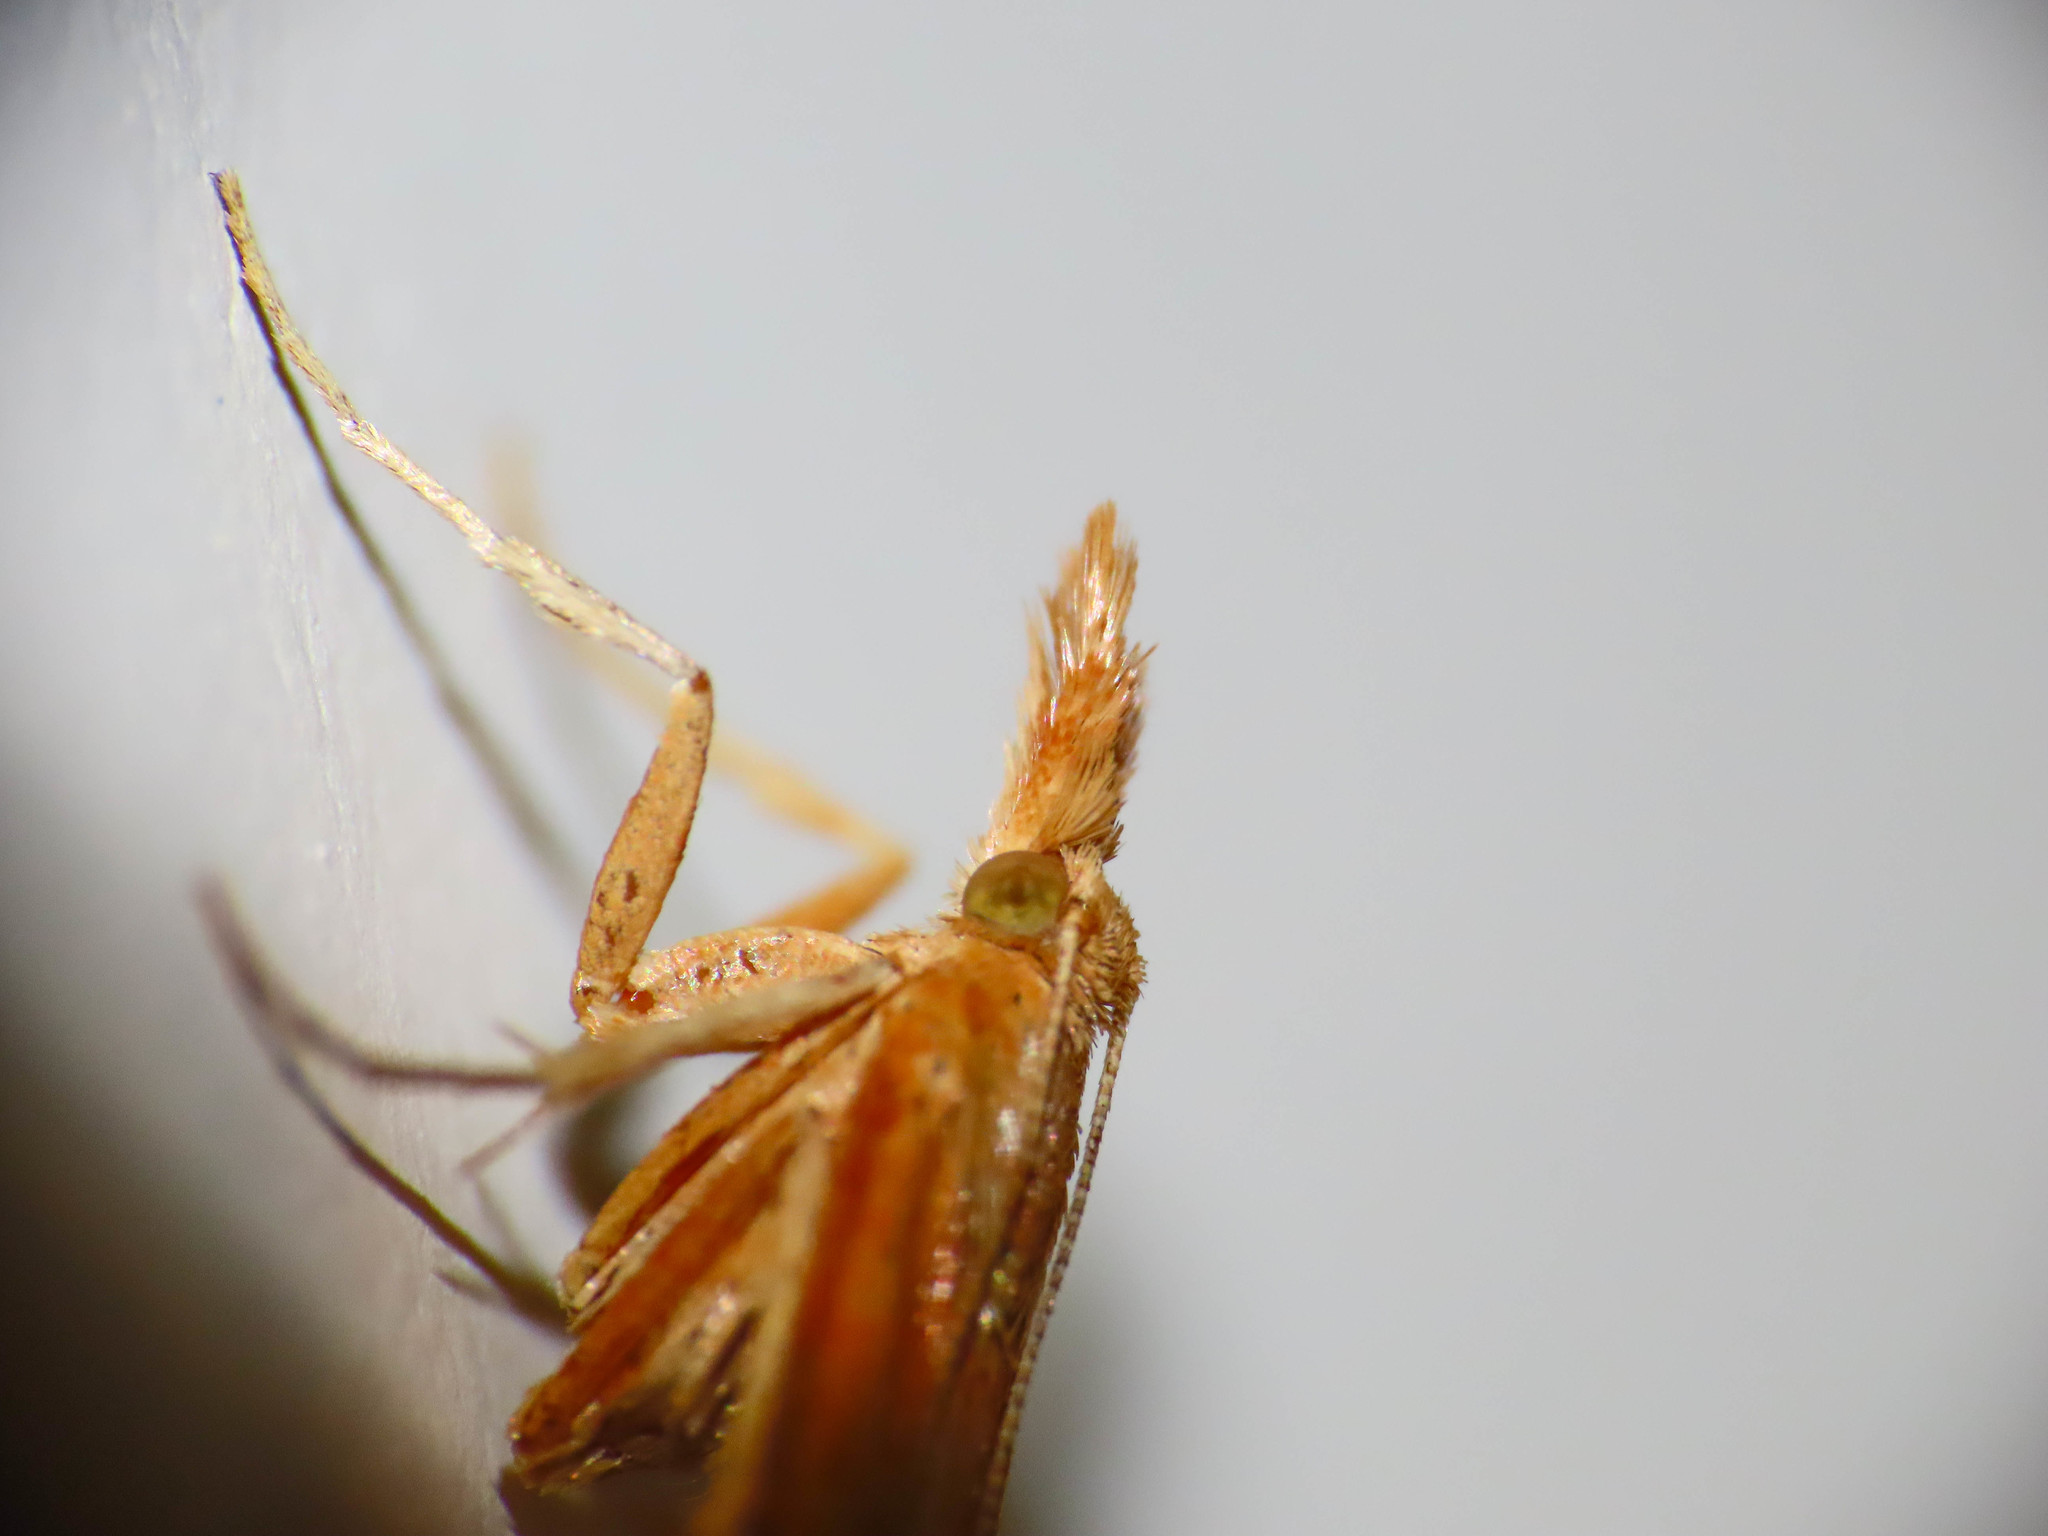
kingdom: Animalia
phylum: Arthropoda
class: Insecta
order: Lepidoptera
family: Pyralidae
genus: Synaphe
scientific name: Synaphe punctalis
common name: Long-legged tabby
